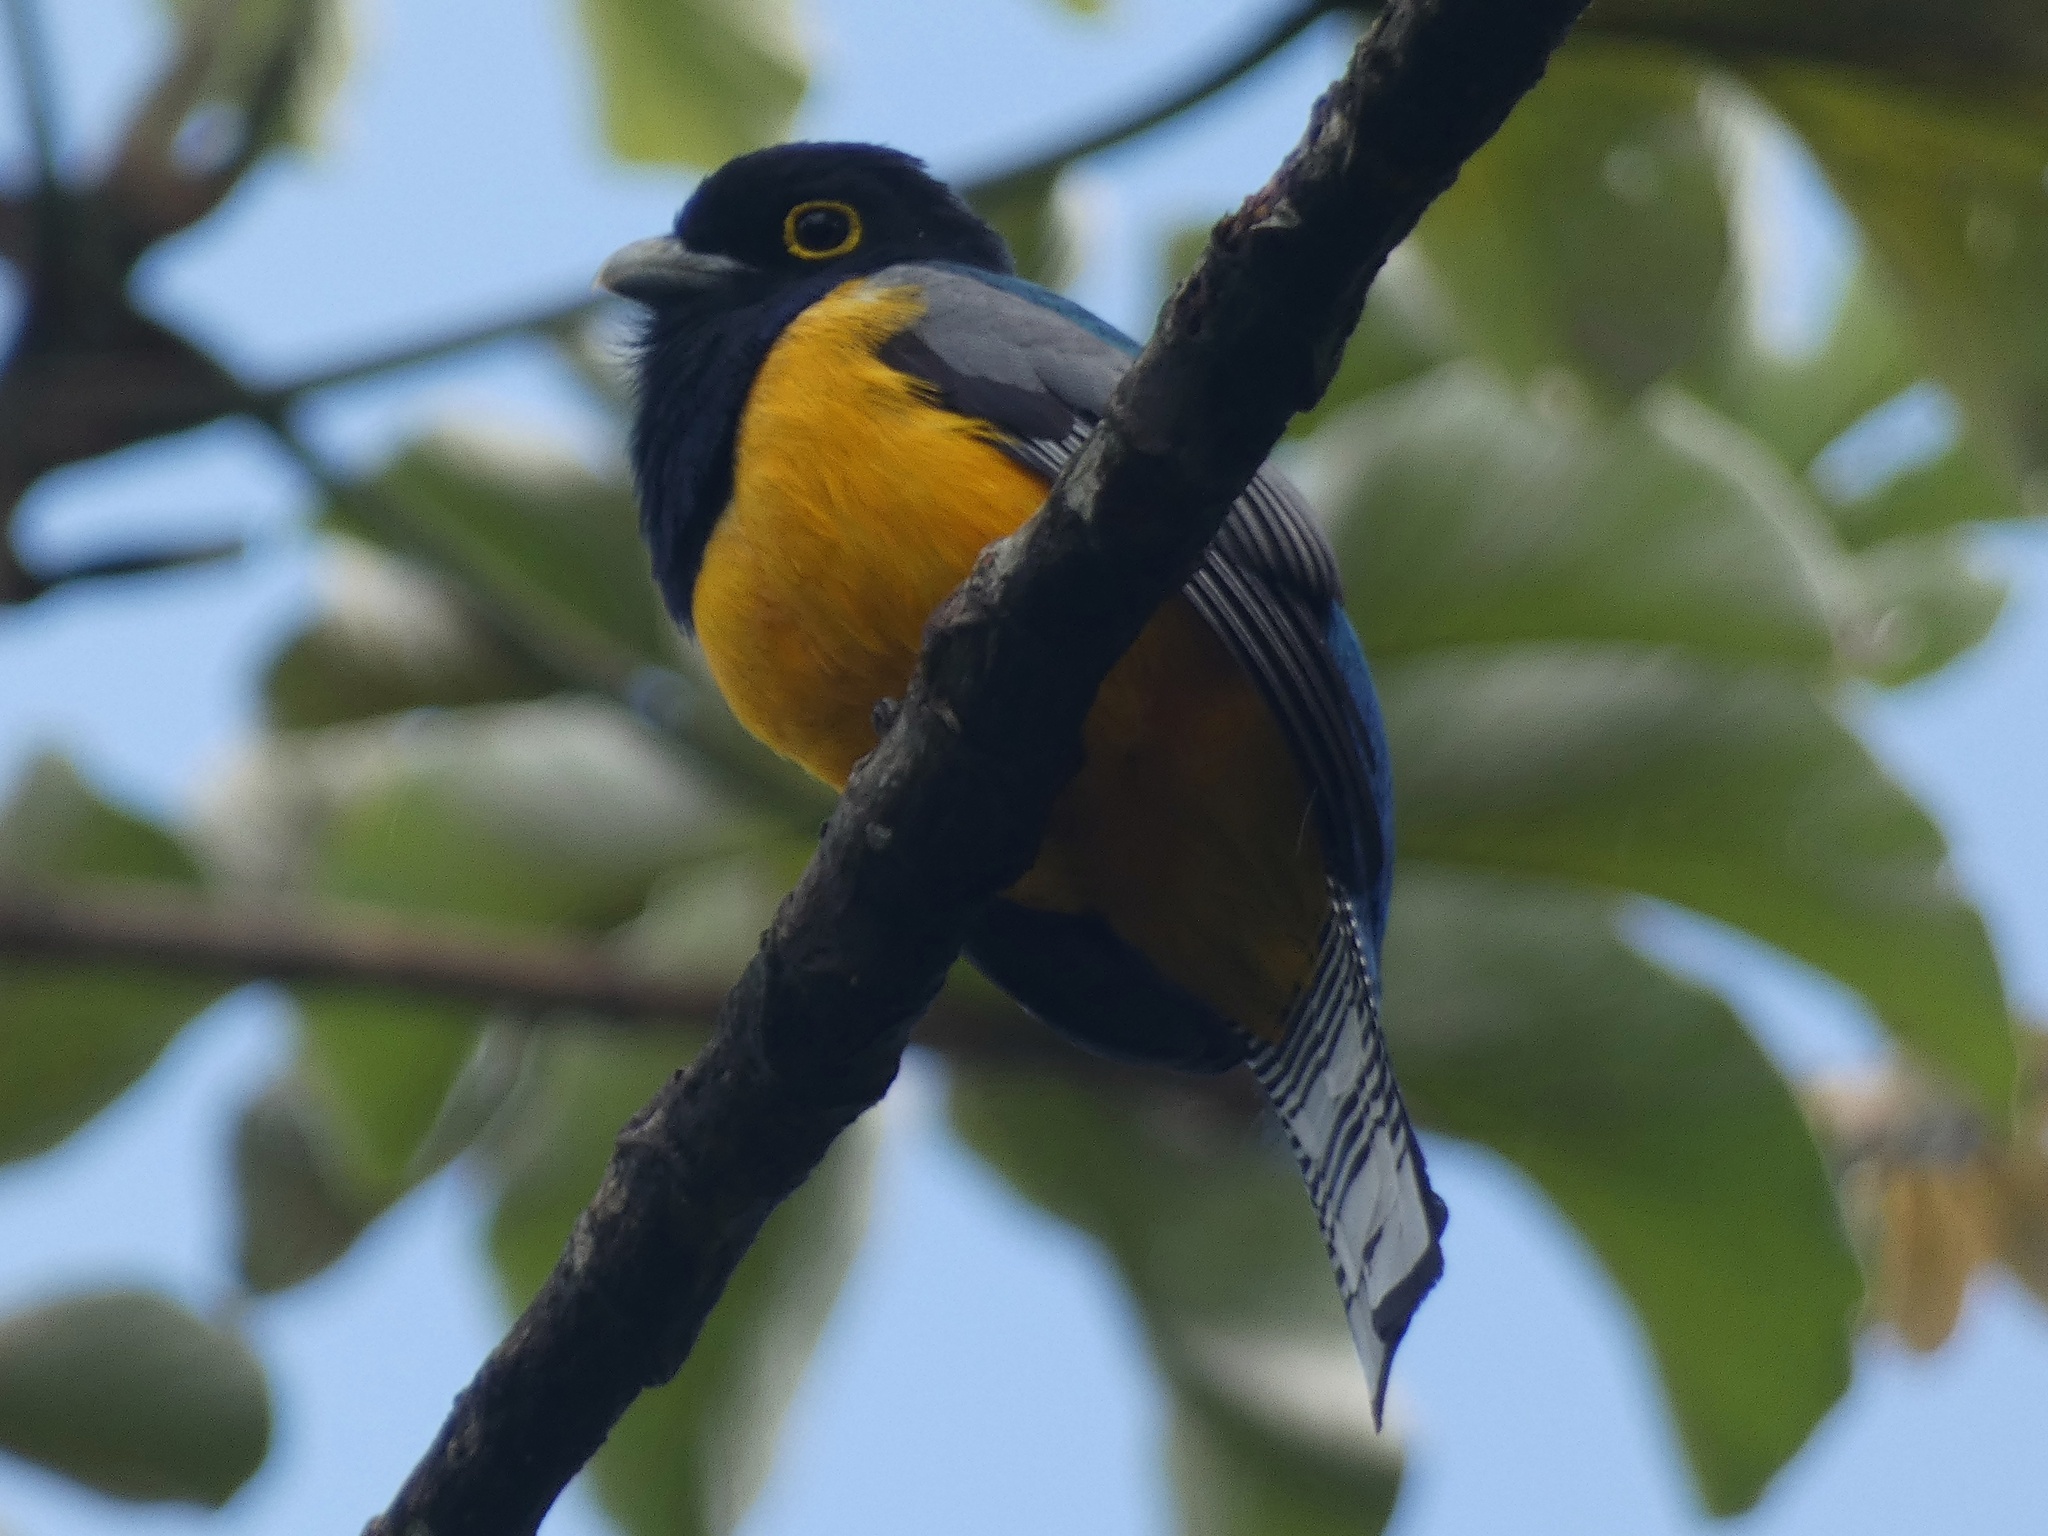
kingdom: Animalia
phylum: Chordata
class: Aves
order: Trogoniformes
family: Trogonidae
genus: Trogon
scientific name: Trogon caligatus
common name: Gartered trogon
